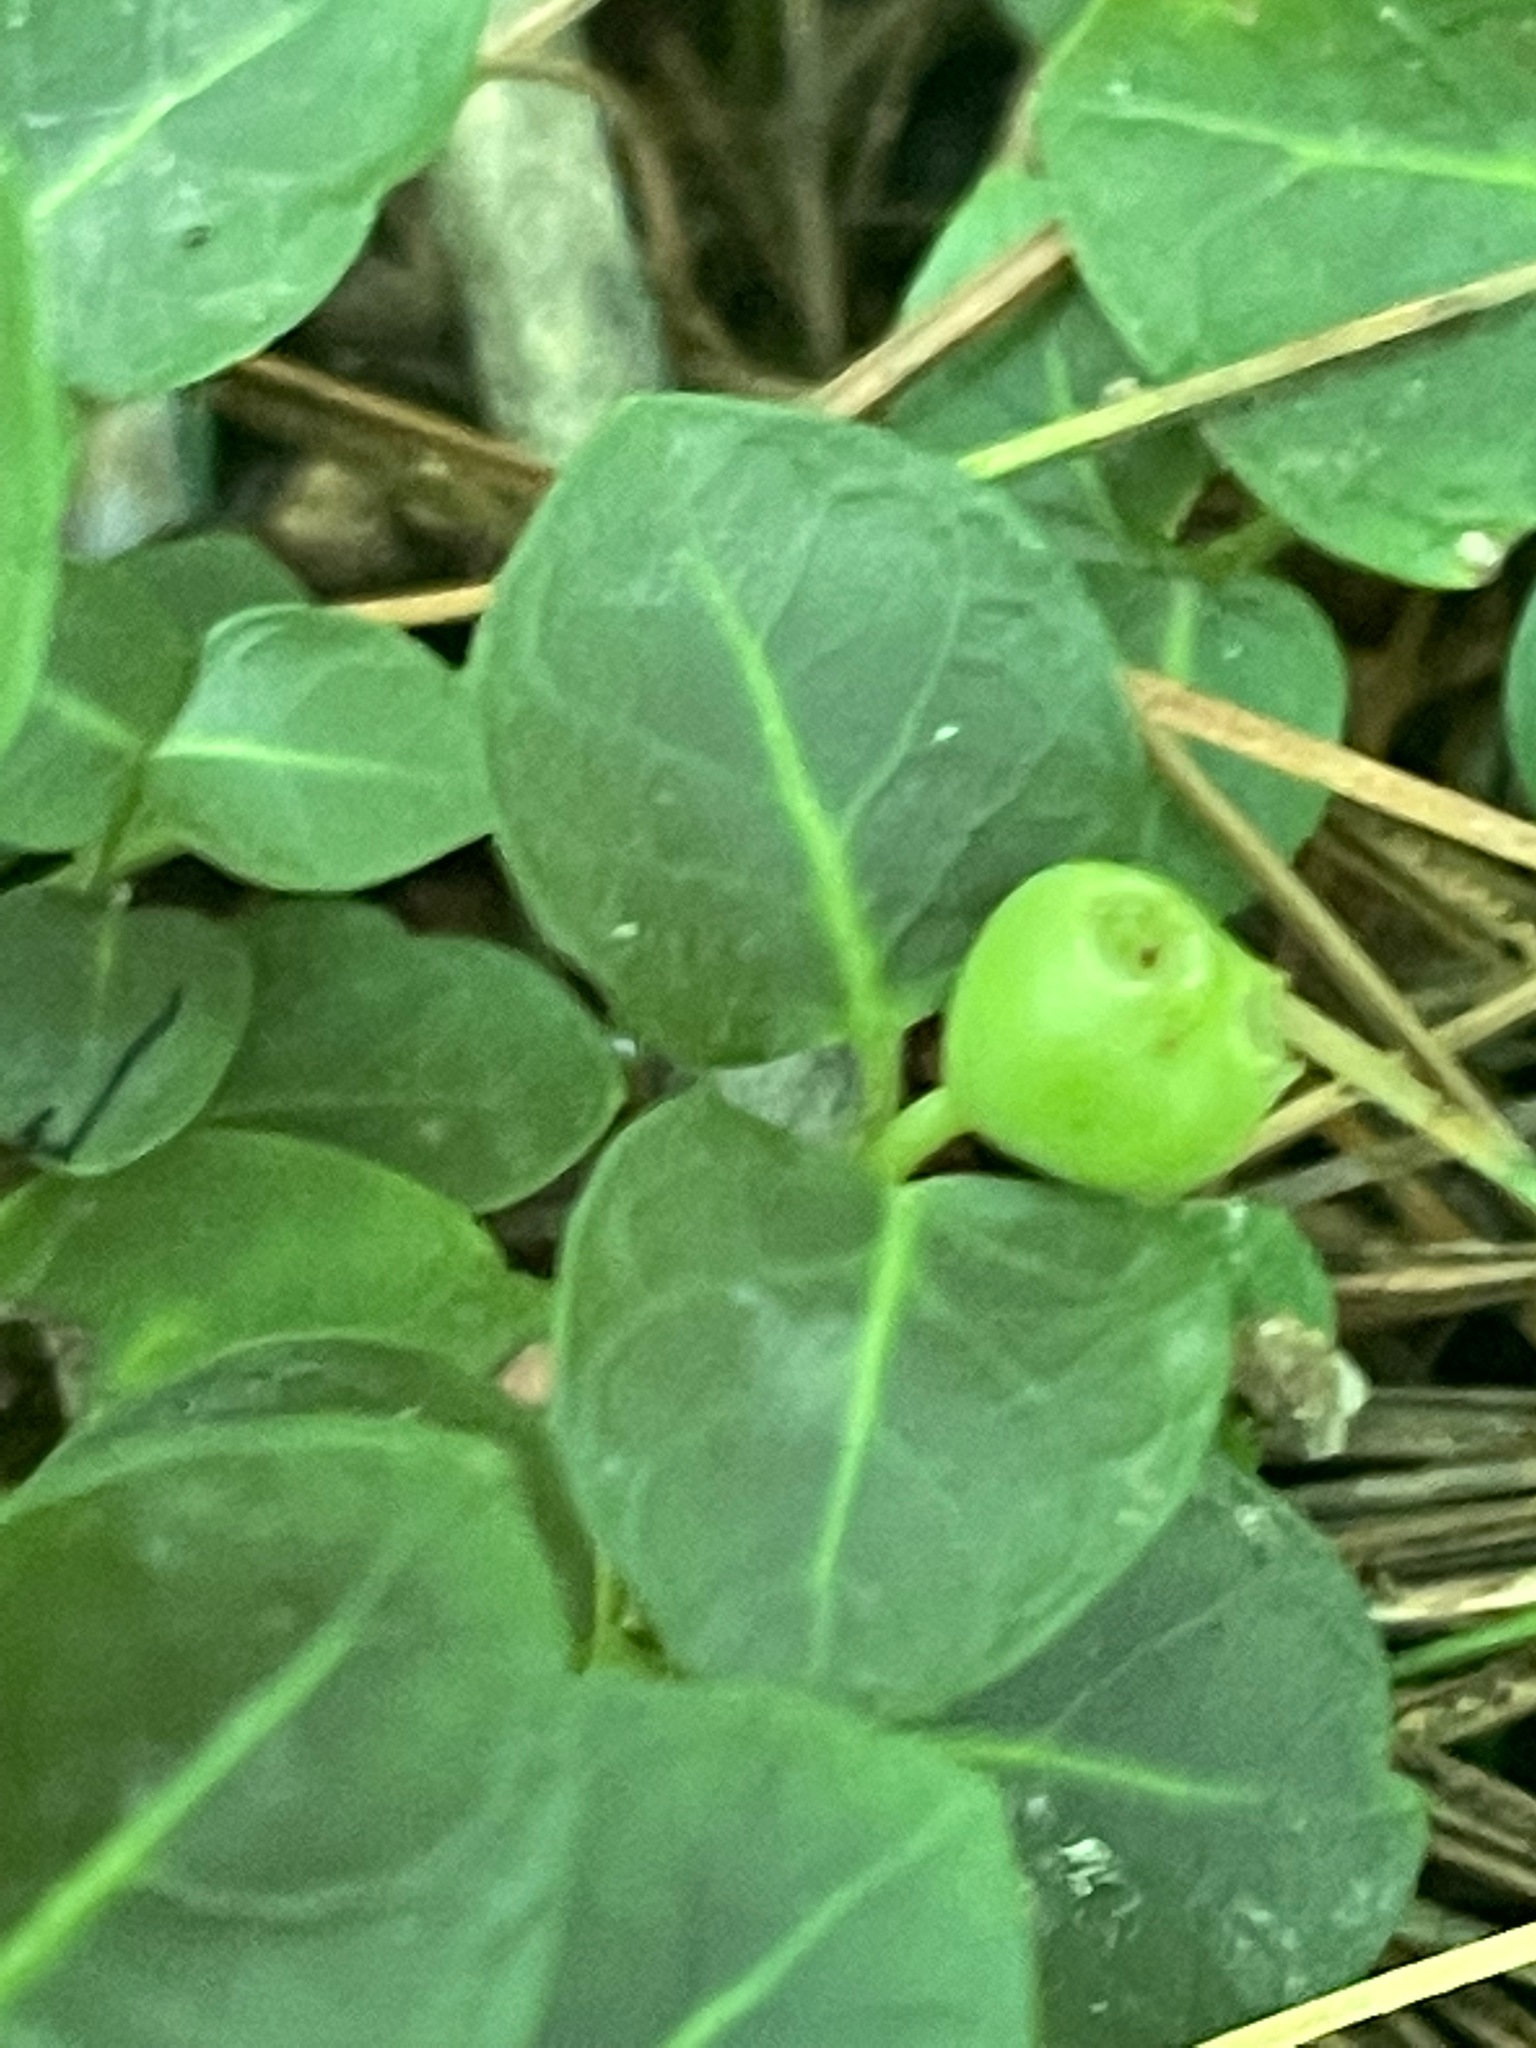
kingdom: Plantae
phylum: Tracheophyta
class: Magnoliopsida
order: Gentianales
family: Rubiaceae
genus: Mitchella
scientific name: Mitchella repens
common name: Partridge-berry
